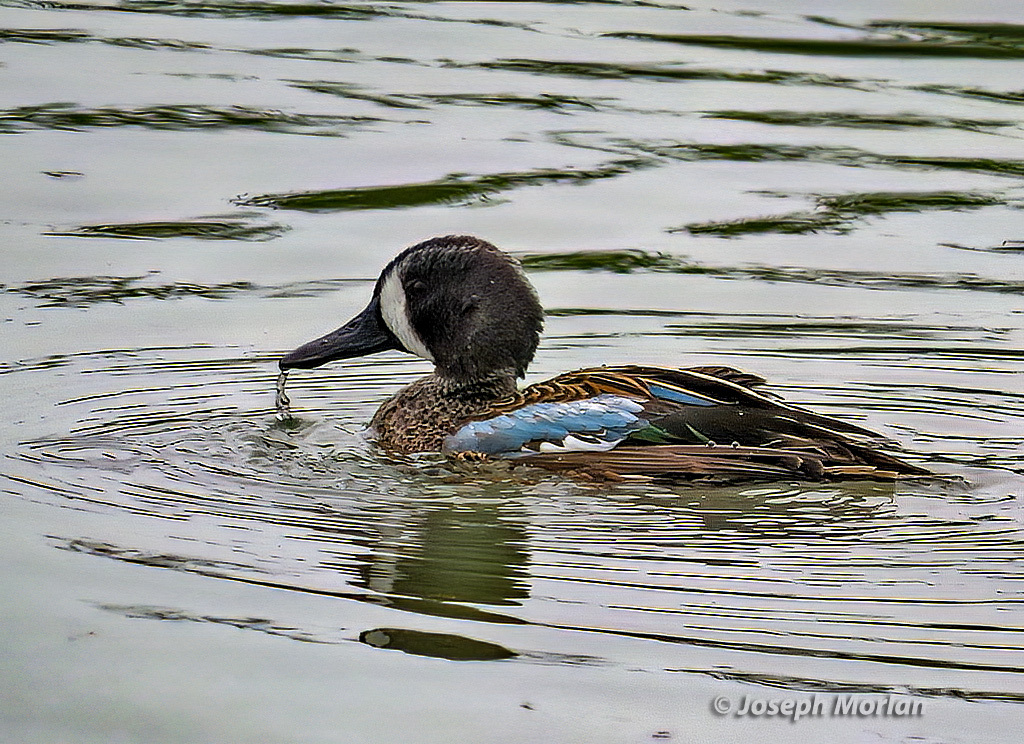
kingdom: Animalia
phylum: Chordata
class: Aves
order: Anseriformes
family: Anatidae
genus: Spatula
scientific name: Spatula discors
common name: Blue-winged teal
